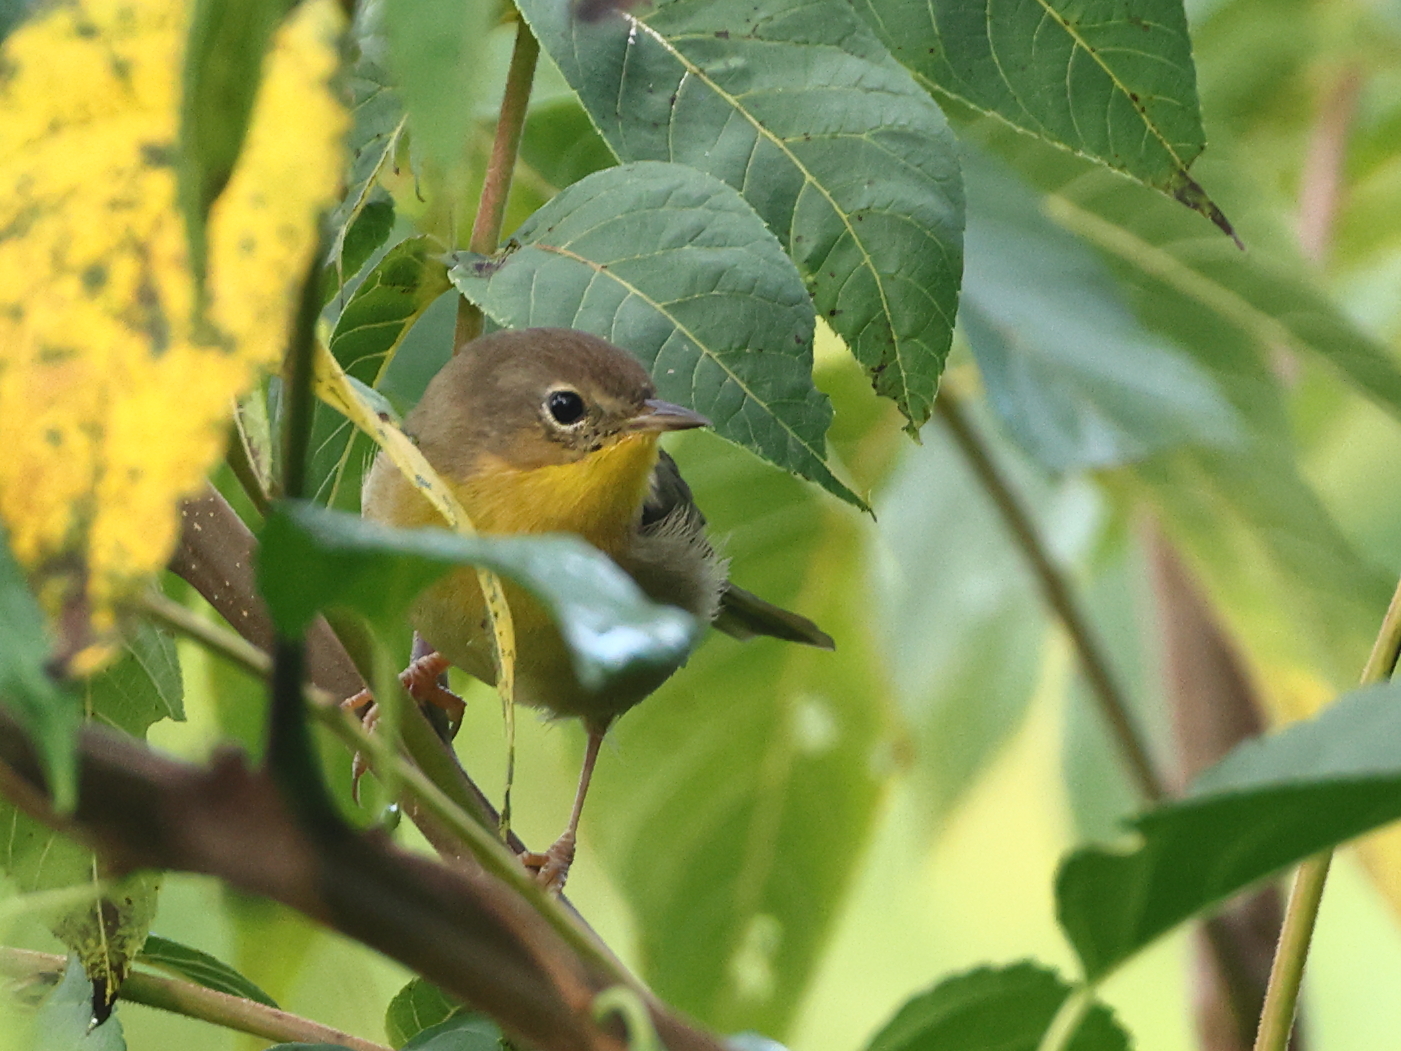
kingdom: Animalia
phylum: Chordata
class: Aves
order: Passeriformes
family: Parulidae
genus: Geothlypis
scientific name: Geothlypis trichas
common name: Common yellowthroat
